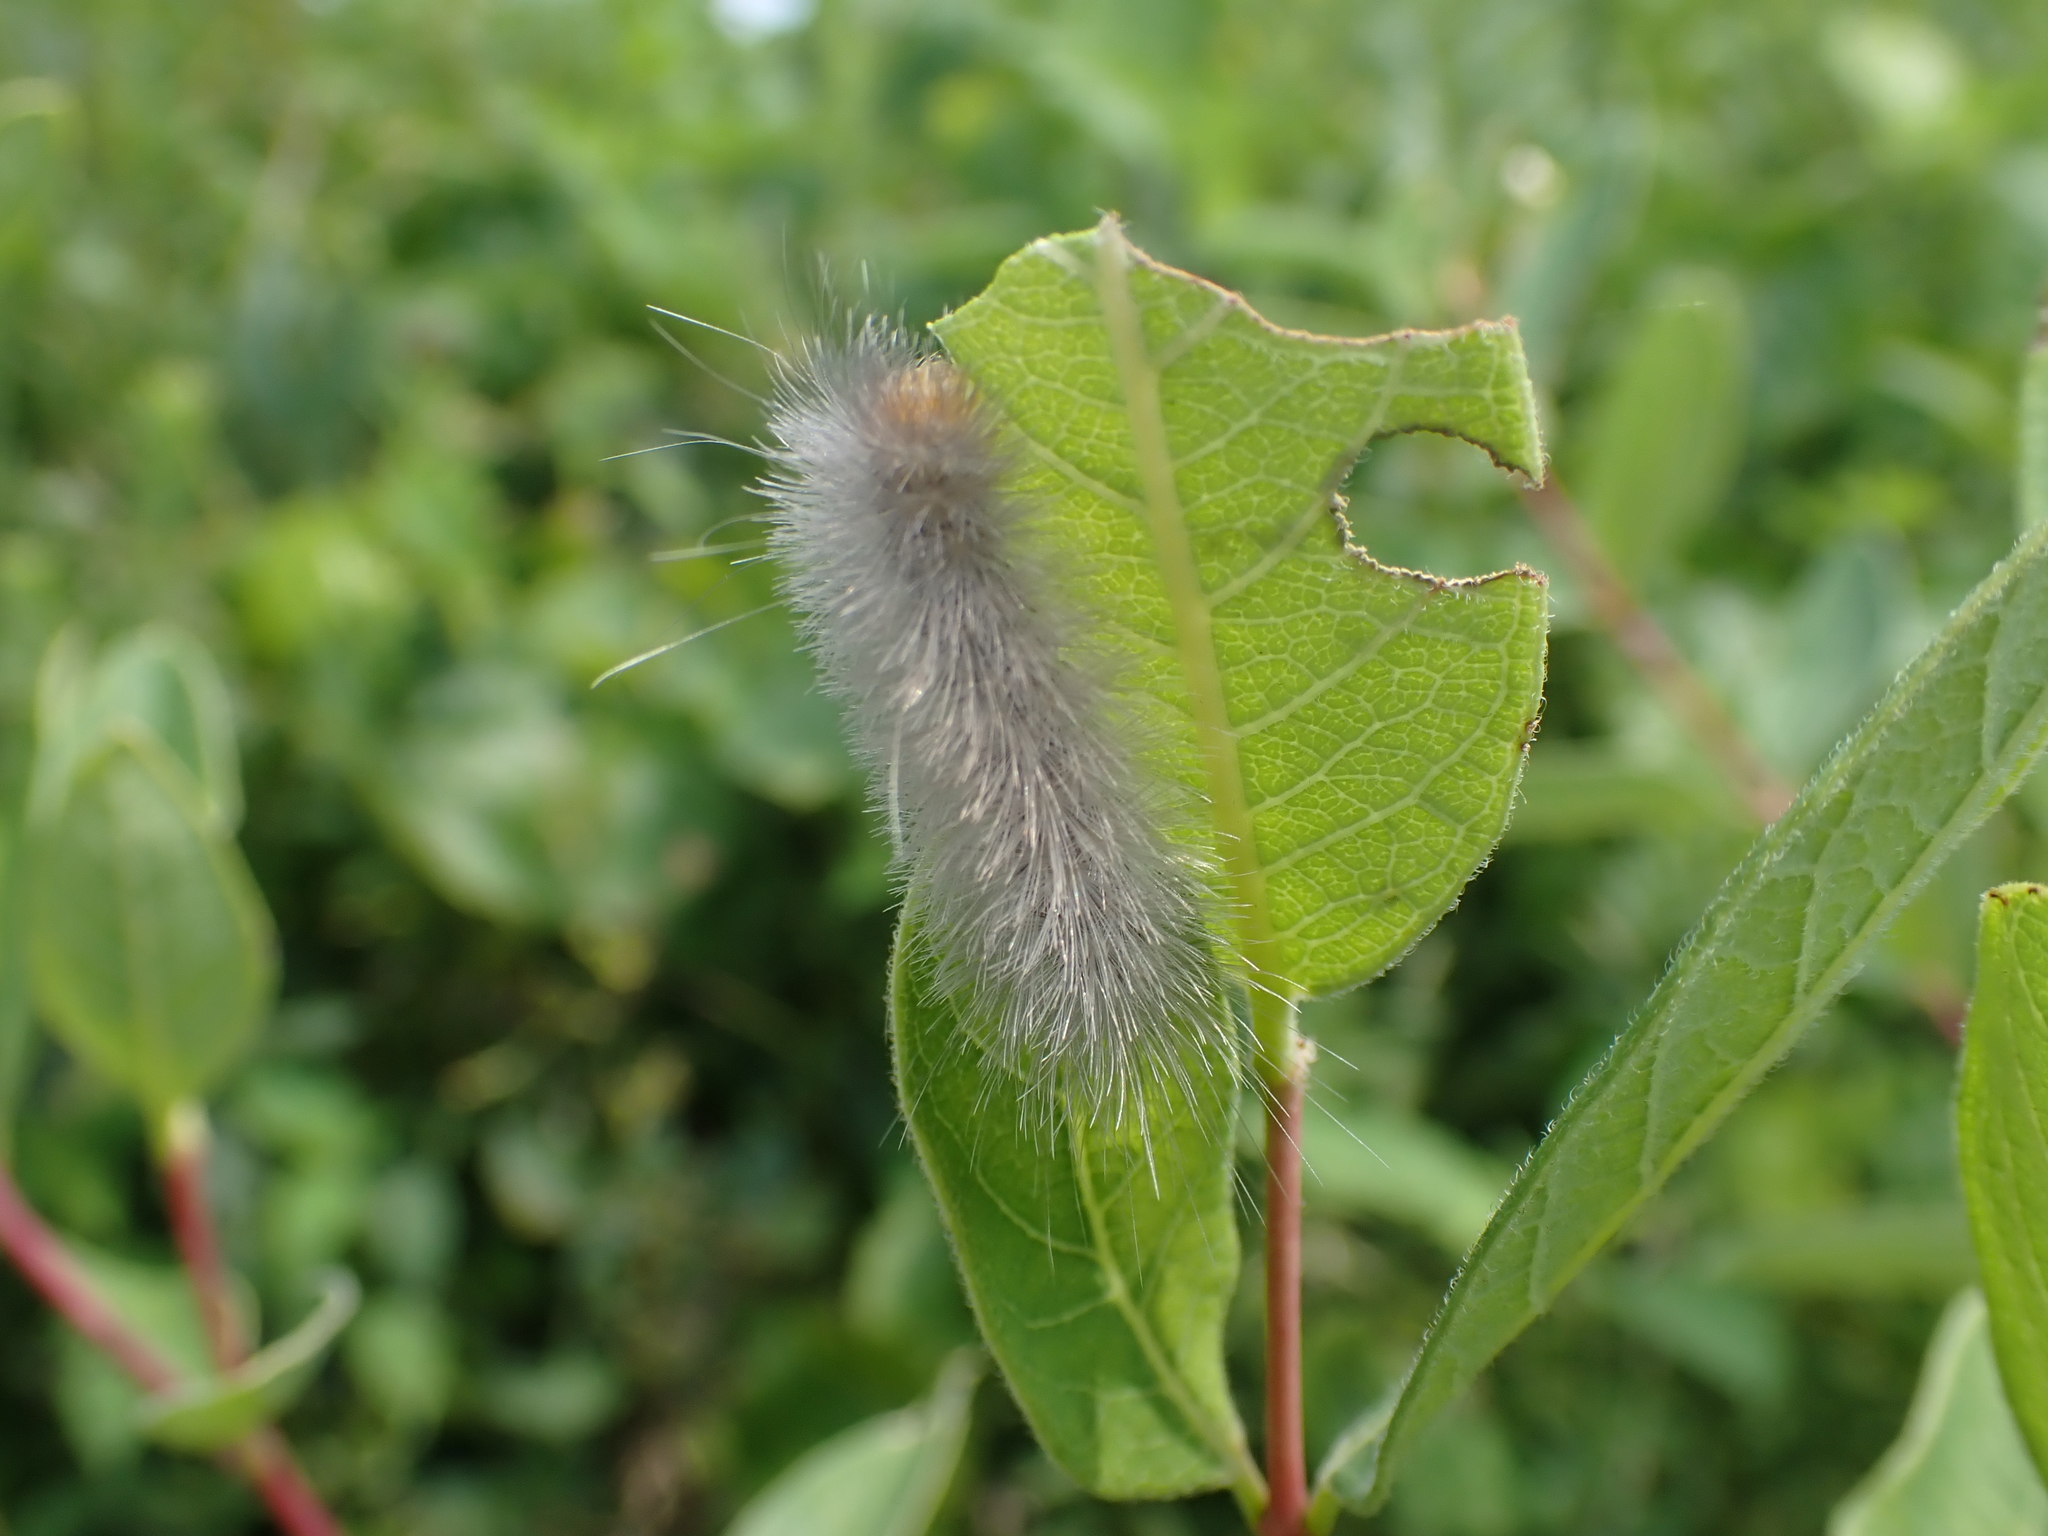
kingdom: Animalia
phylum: Arthropoda
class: Insecta
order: Lepidoptera
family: Erebidae
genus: Cycnia
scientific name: Cycnia tenera
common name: Delicate cycnia moth
